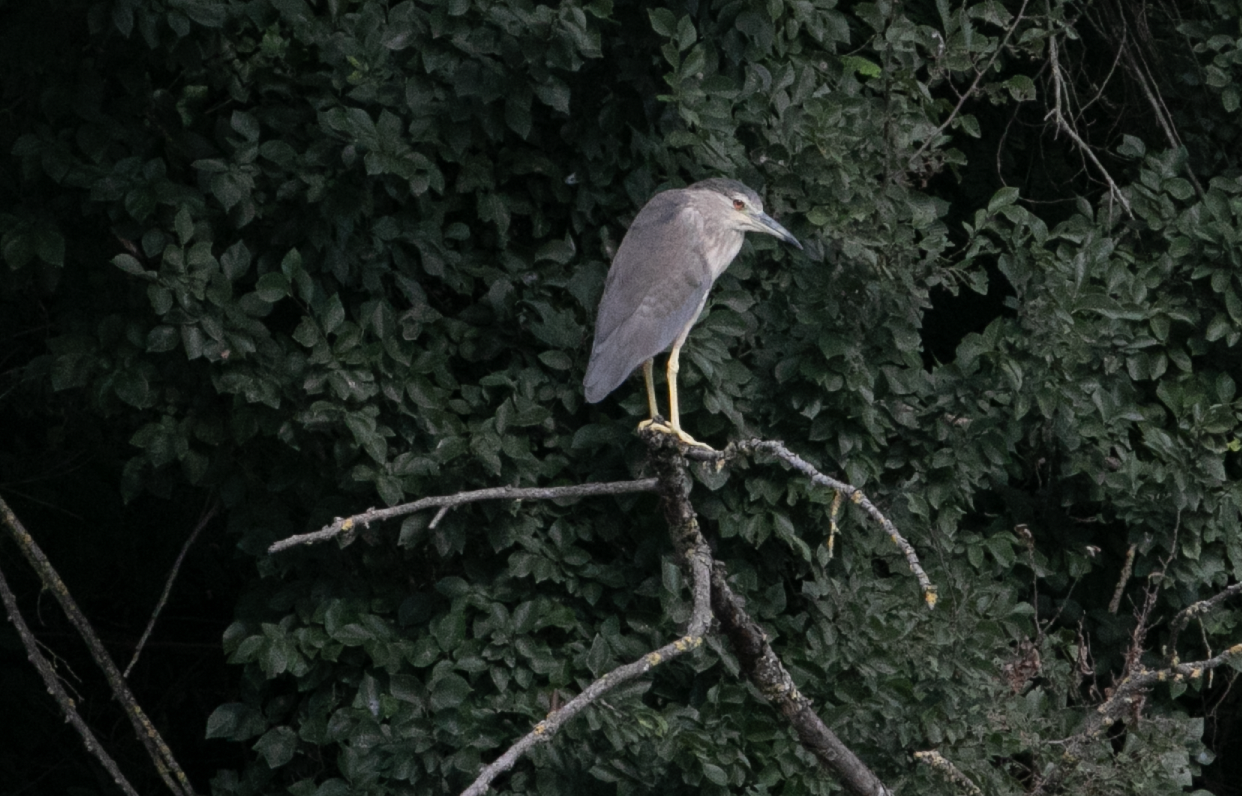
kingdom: Animalia
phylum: Chordata
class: Aves
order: Pelecaniformes
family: Ardeidae
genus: Nycticorax
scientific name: Nycticorax nycticorax
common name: Black-crowned night heron
